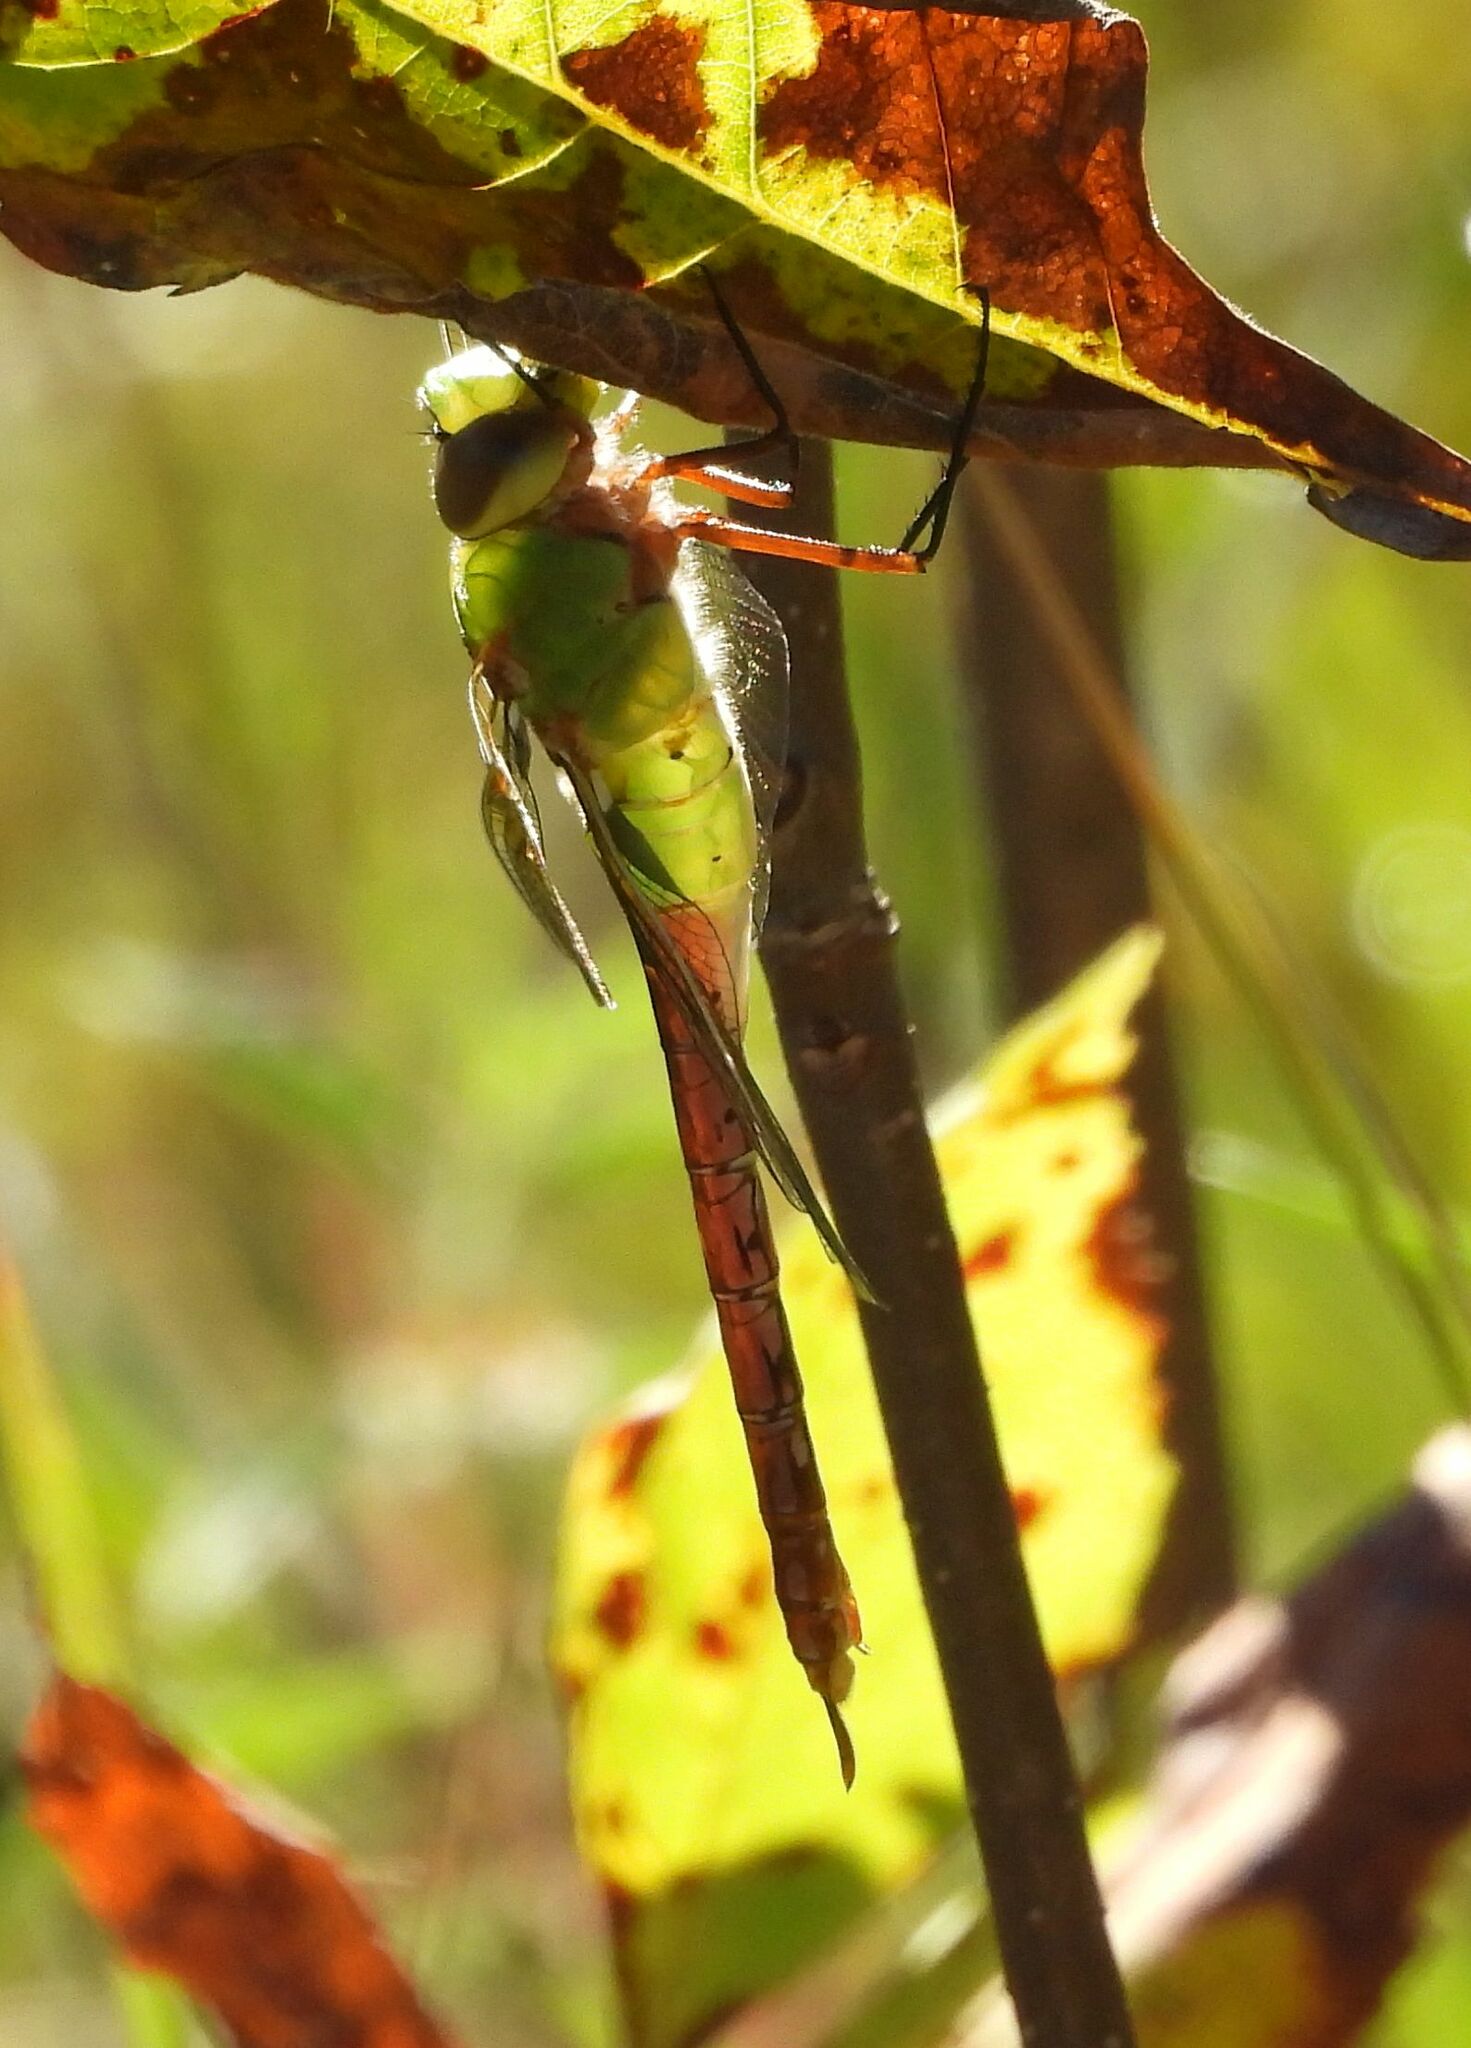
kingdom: Animalia
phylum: Arthropoda
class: Insecta
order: Odonata
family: Aeshnidae
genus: Anax
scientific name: Anax junius
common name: Common green darner
